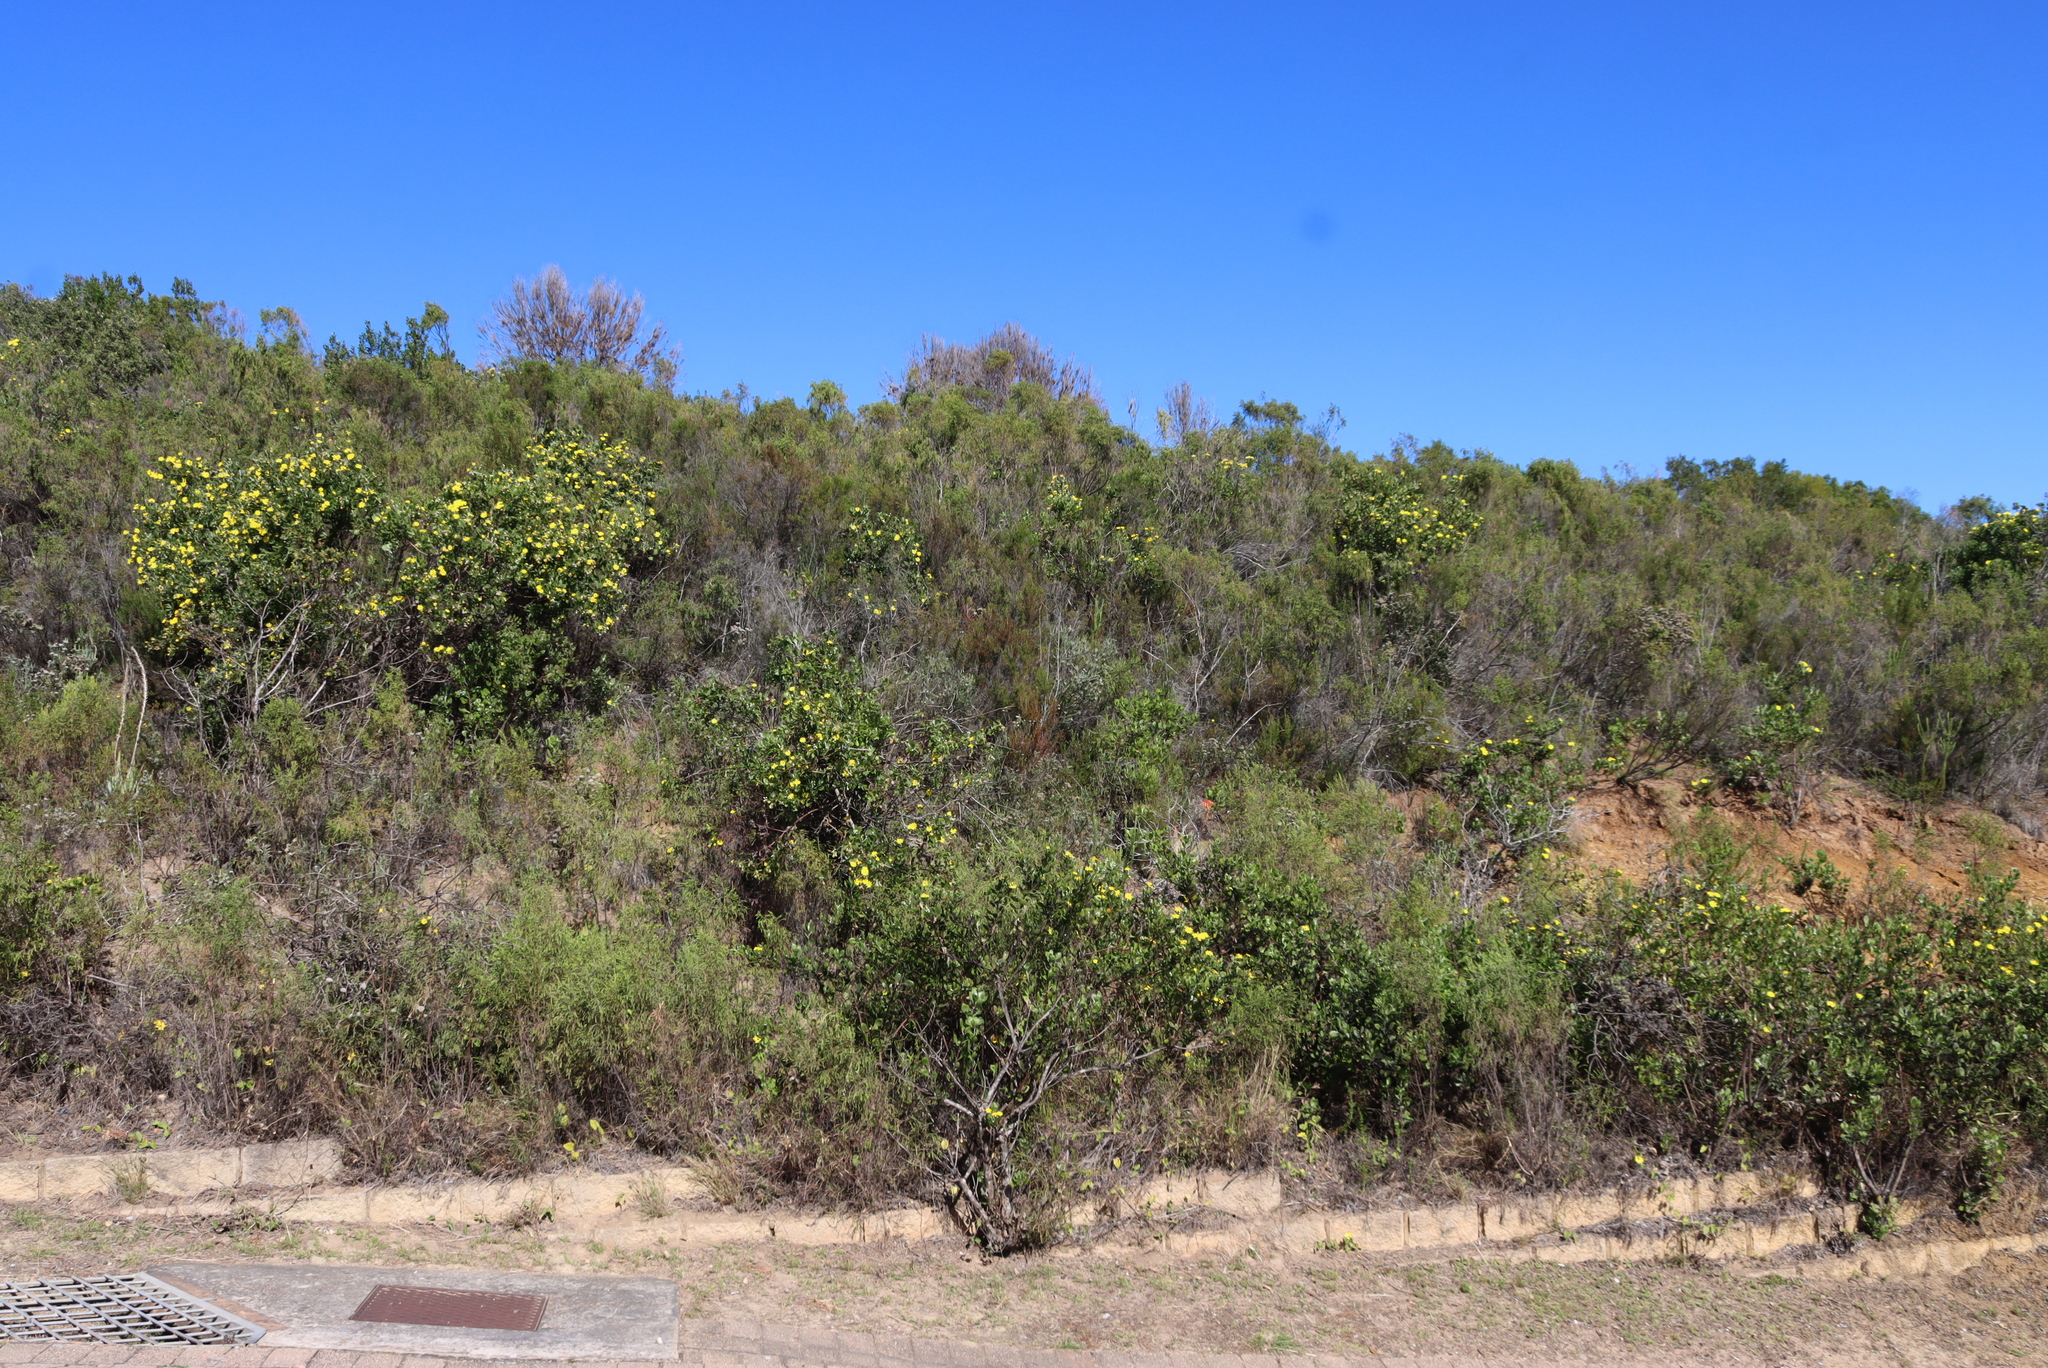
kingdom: Plantae
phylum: Tracheophyta
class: Magnoliopsida
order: Asterales
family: Asteraceae
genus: Osteospermum
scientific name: Osteospermum moniliferum
